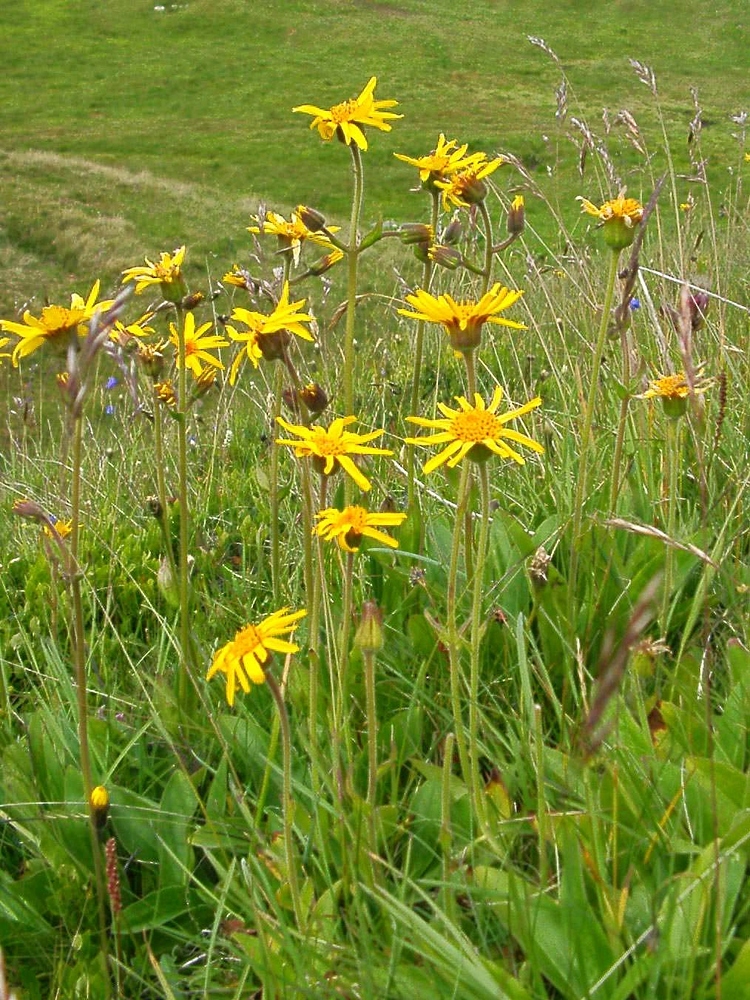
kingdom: Plantae
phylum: Tracheophyta
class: Magnoliopsida
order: Asterales
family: Asteraceae
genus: Arnica
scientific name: Arnica montana
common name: Leopard's bane
